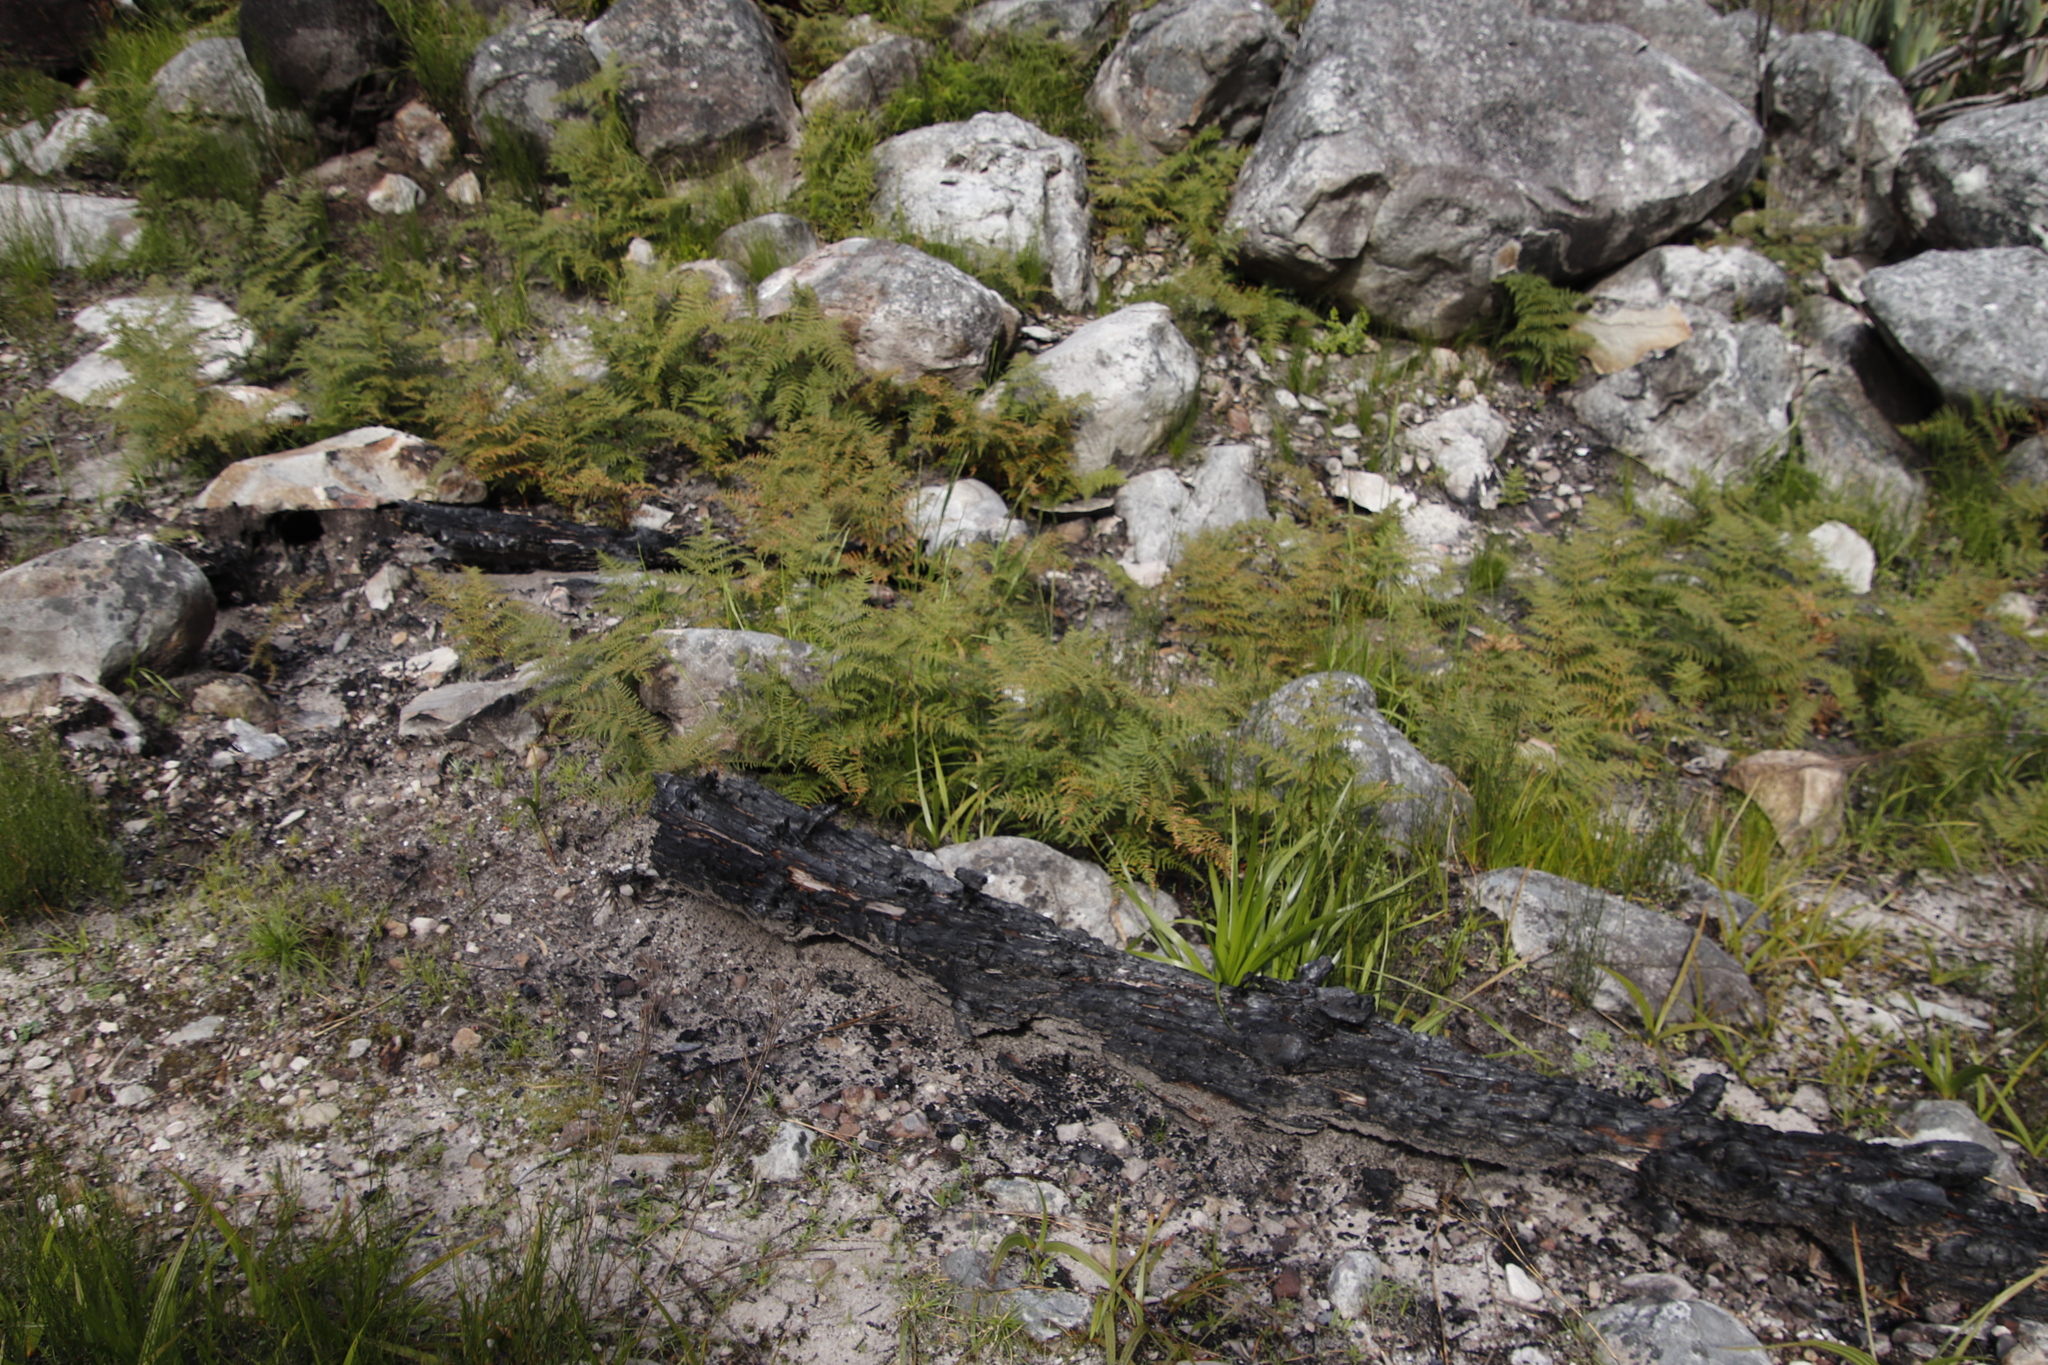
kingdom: Plantae
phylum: Tracheophyta
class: Polypodiopsida
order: Polypodiales
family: Dennstaedtiaceae
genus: Pteridium
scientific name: Pteridium aquilinum
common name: Bracken
